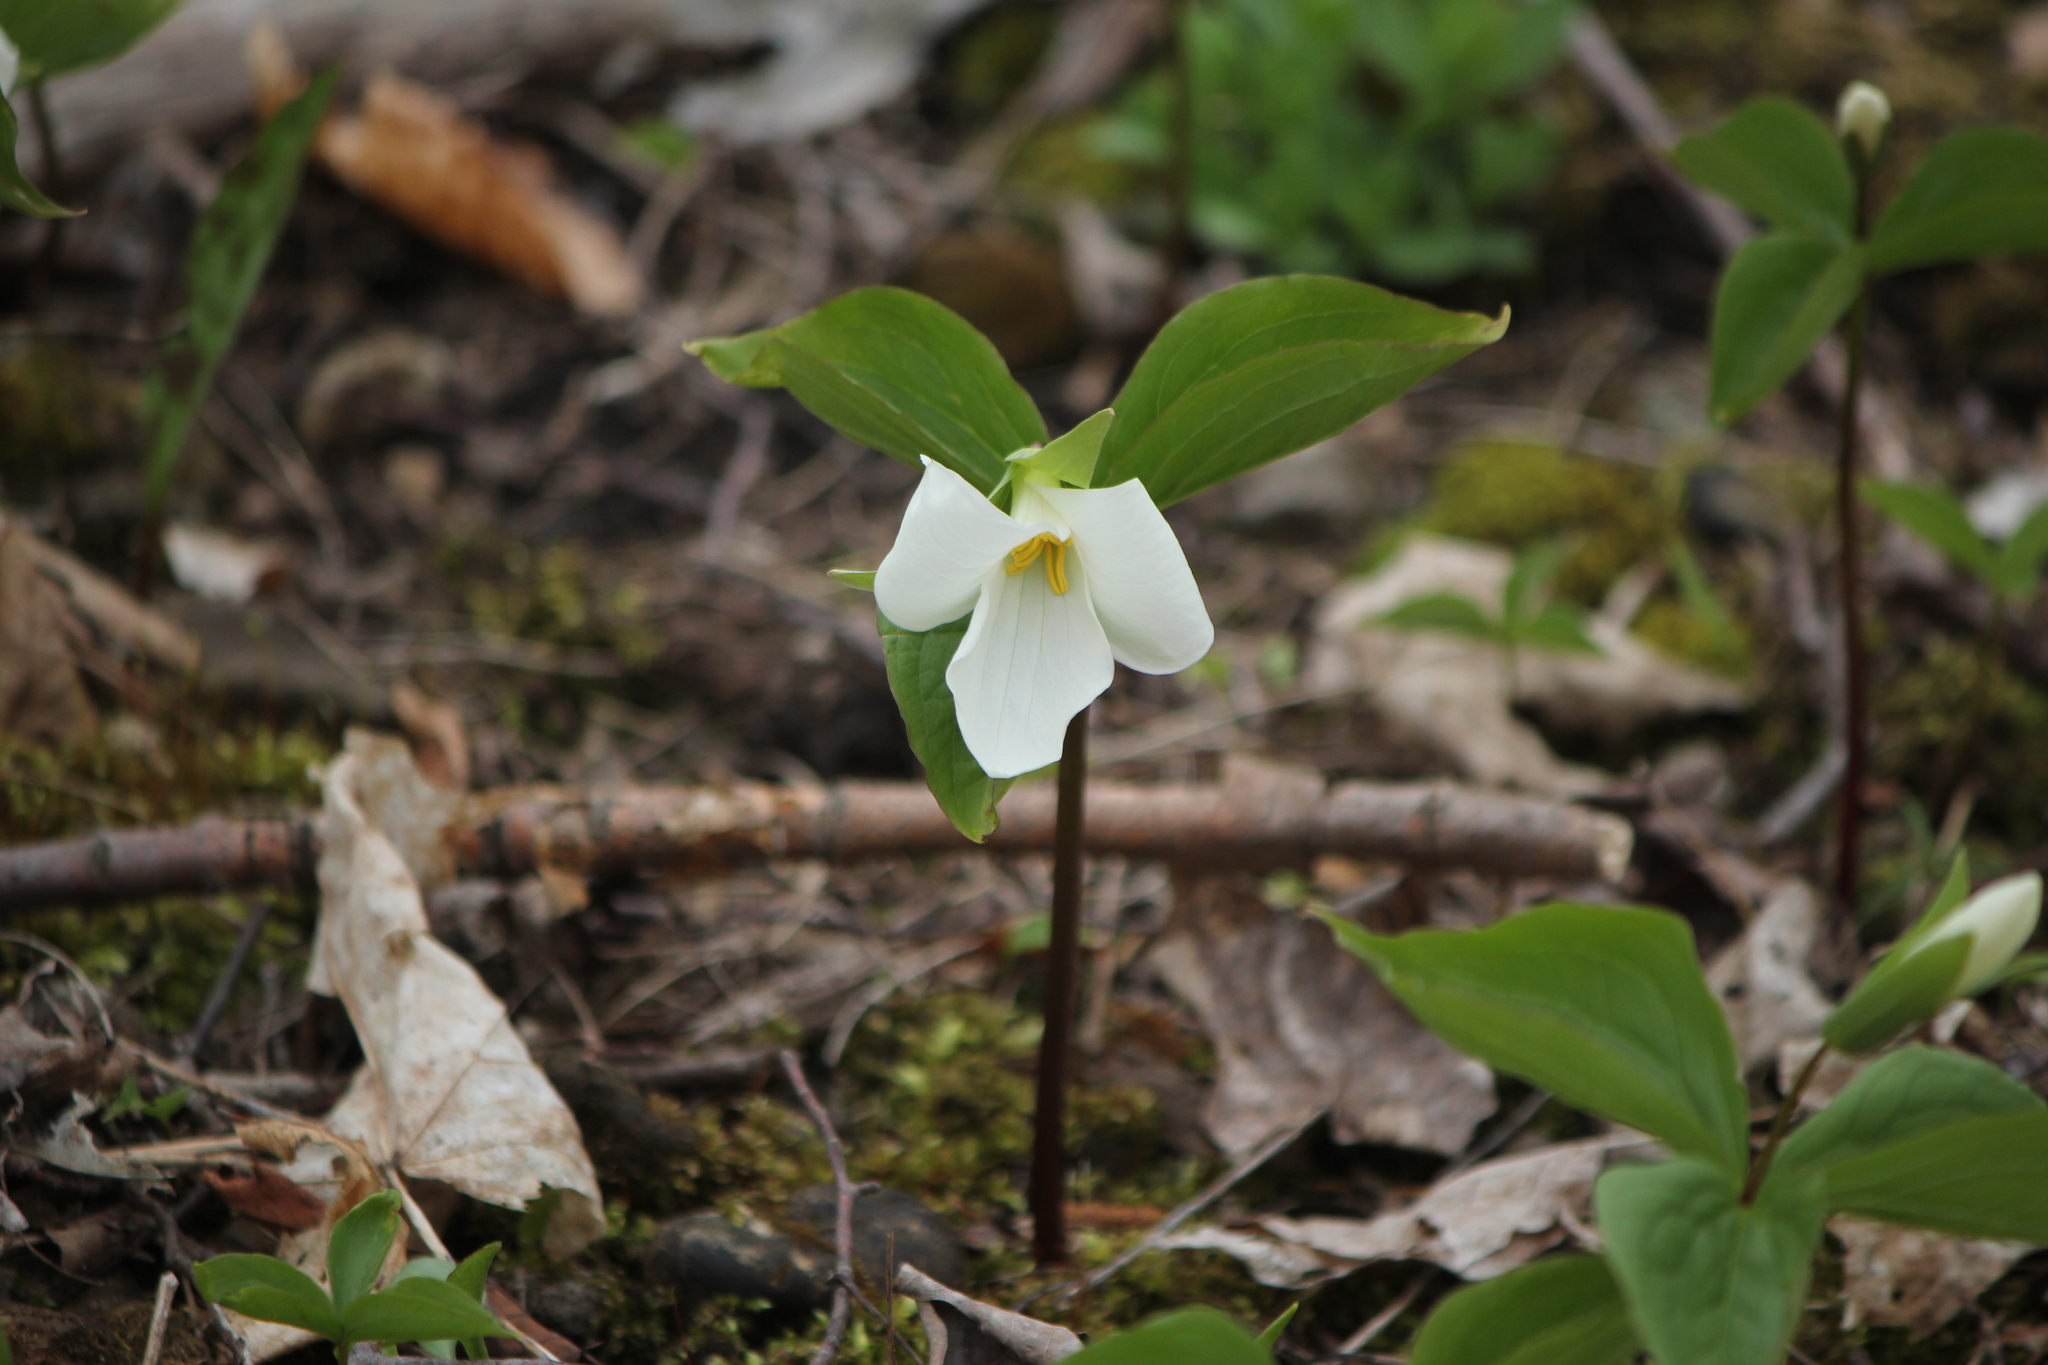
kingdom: Plantae
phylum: Tracheophyta
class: Liliopsida
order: Liliales
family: Melanthiaceae
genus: Trillium
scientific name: Trillium grandiflorum
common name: Great white trillium
